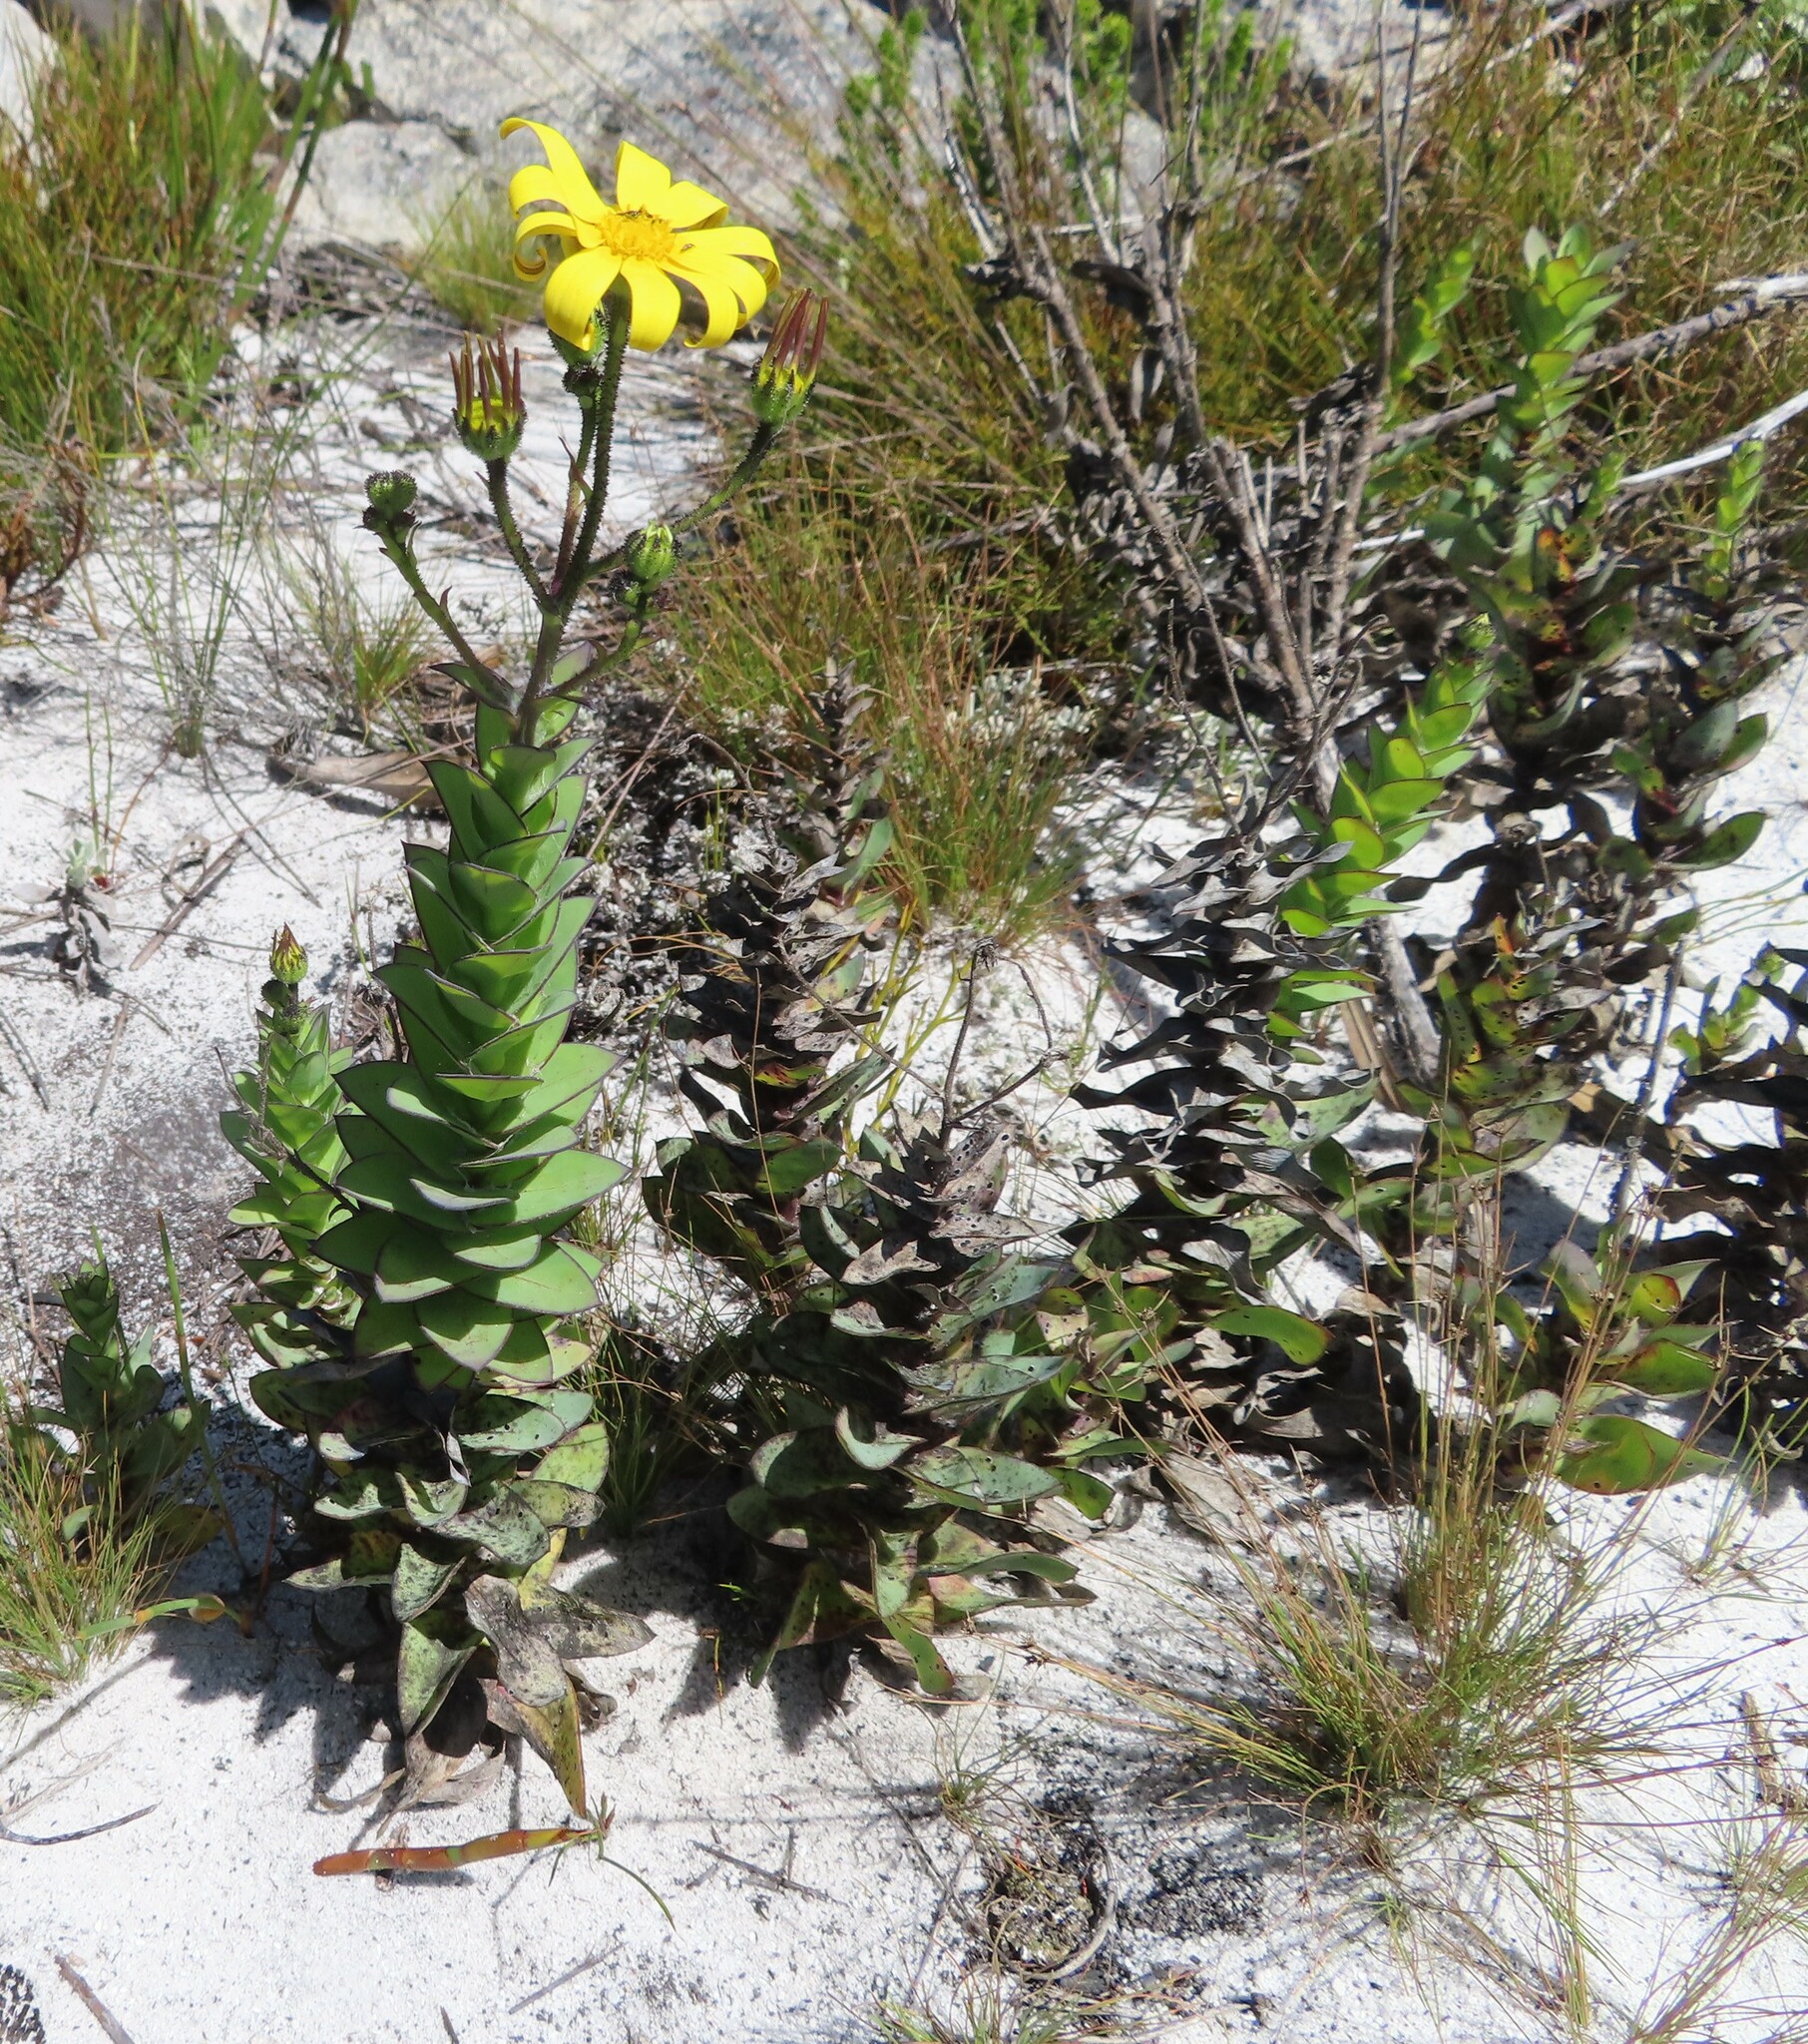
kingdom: Plantae
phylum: Tracheophyta
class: Magnoliopsida
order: Asterales
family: Asteraceae
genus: Osteospermum
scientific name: Osteospermum rotundifolium
